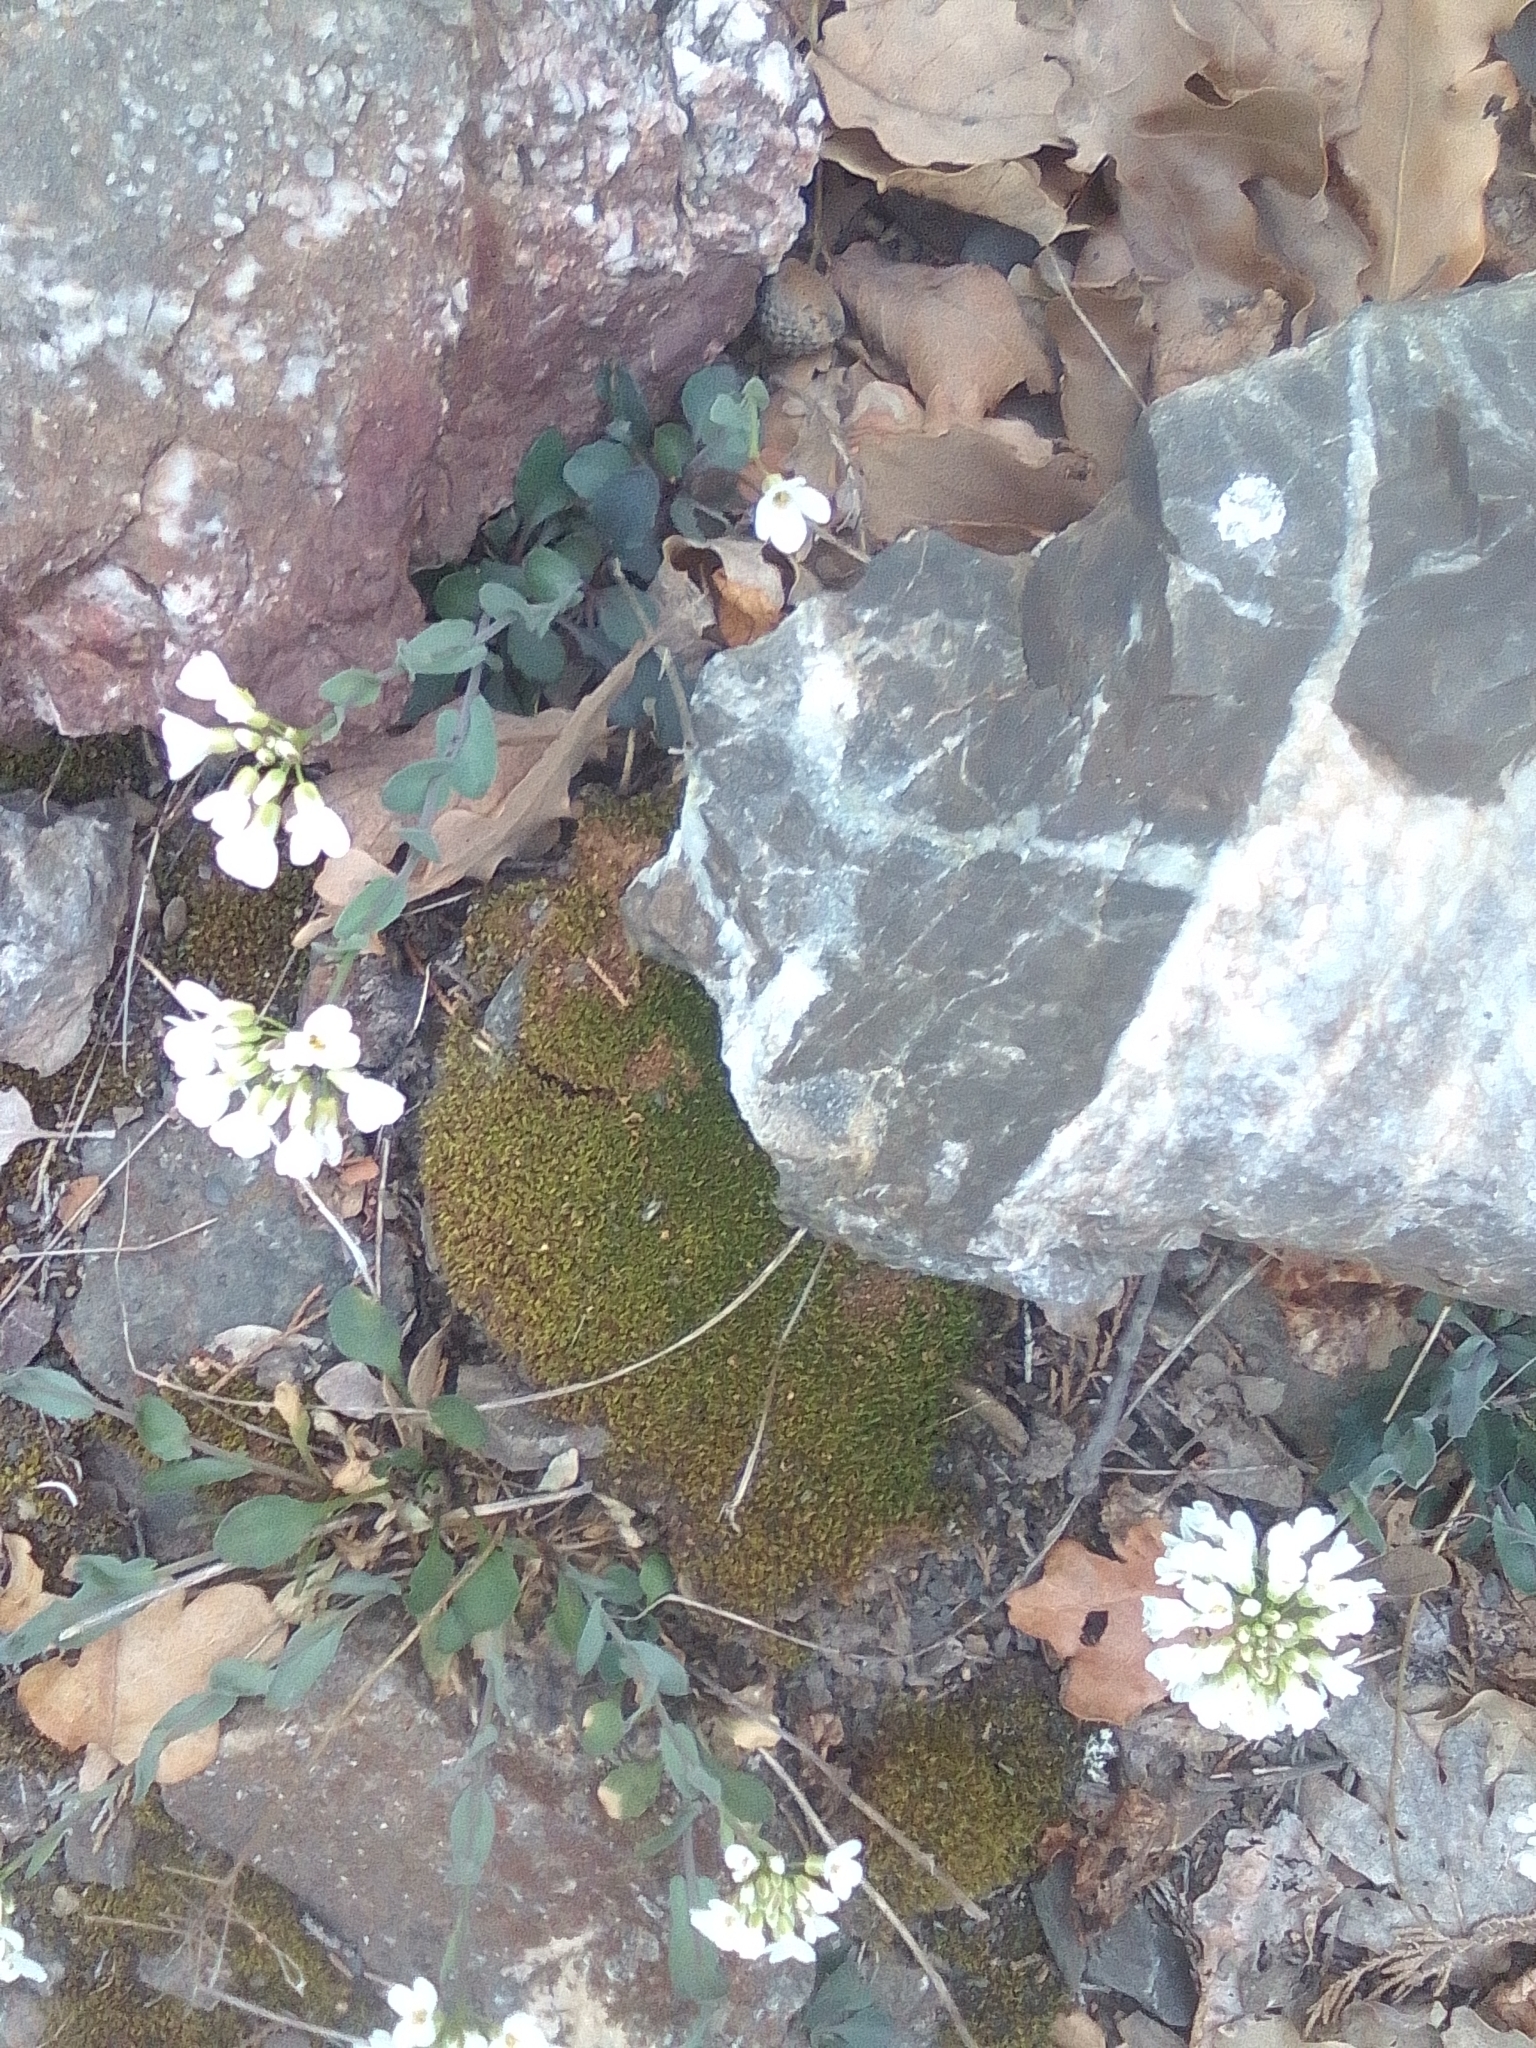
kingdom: Plantae
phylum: Tracheophyta
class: Magnoliopsida
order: Brassicales
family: Brassicaceae
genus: Noccaea
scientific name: Noccaea macrantha
